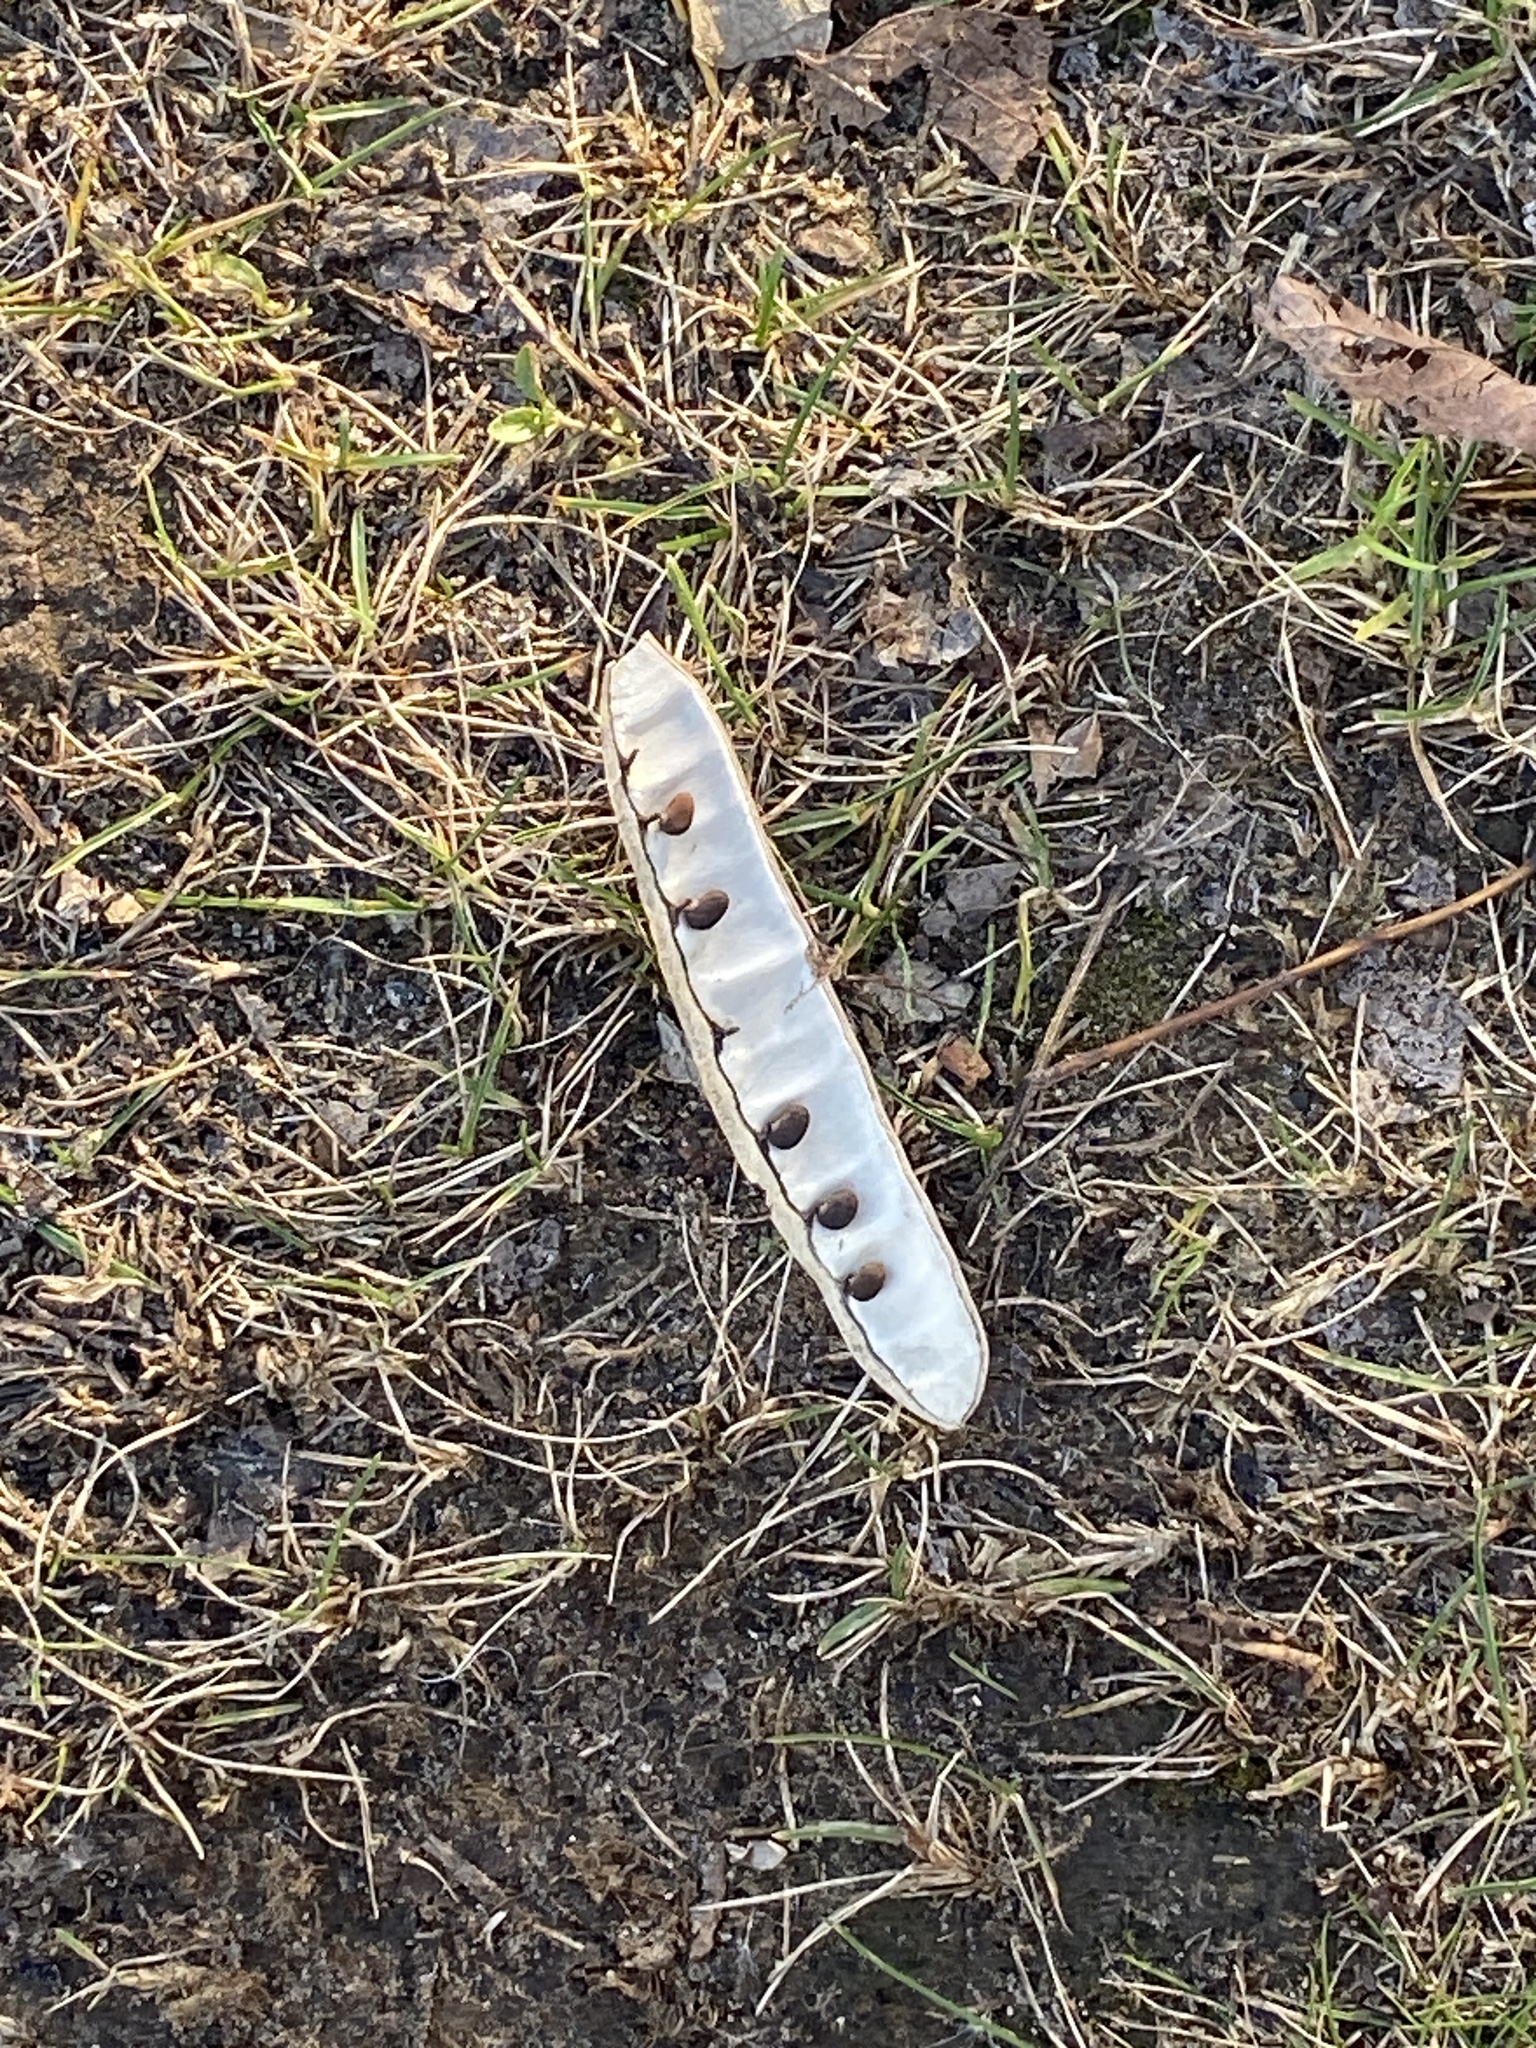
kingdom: Plantae
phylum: Tracheophyta
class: Magnoliopsida
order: Fabales
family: Fabaceae
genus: Robinia
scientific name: Robinia pseudoacacia
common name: Black locust
